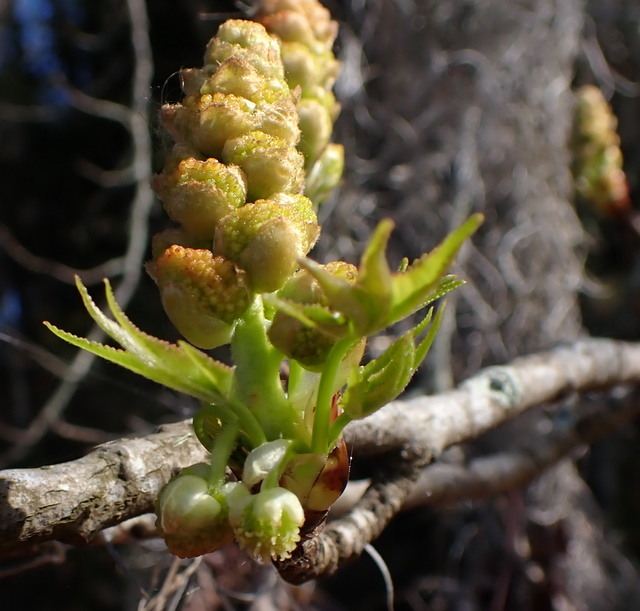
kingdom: Plantae
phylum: Tracheophyta
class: Magnoliopsida
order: Saxifragales
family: Altingiaceae
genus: Liquidambar
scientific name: Liquidambar styraciflua
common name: Sweet gum
